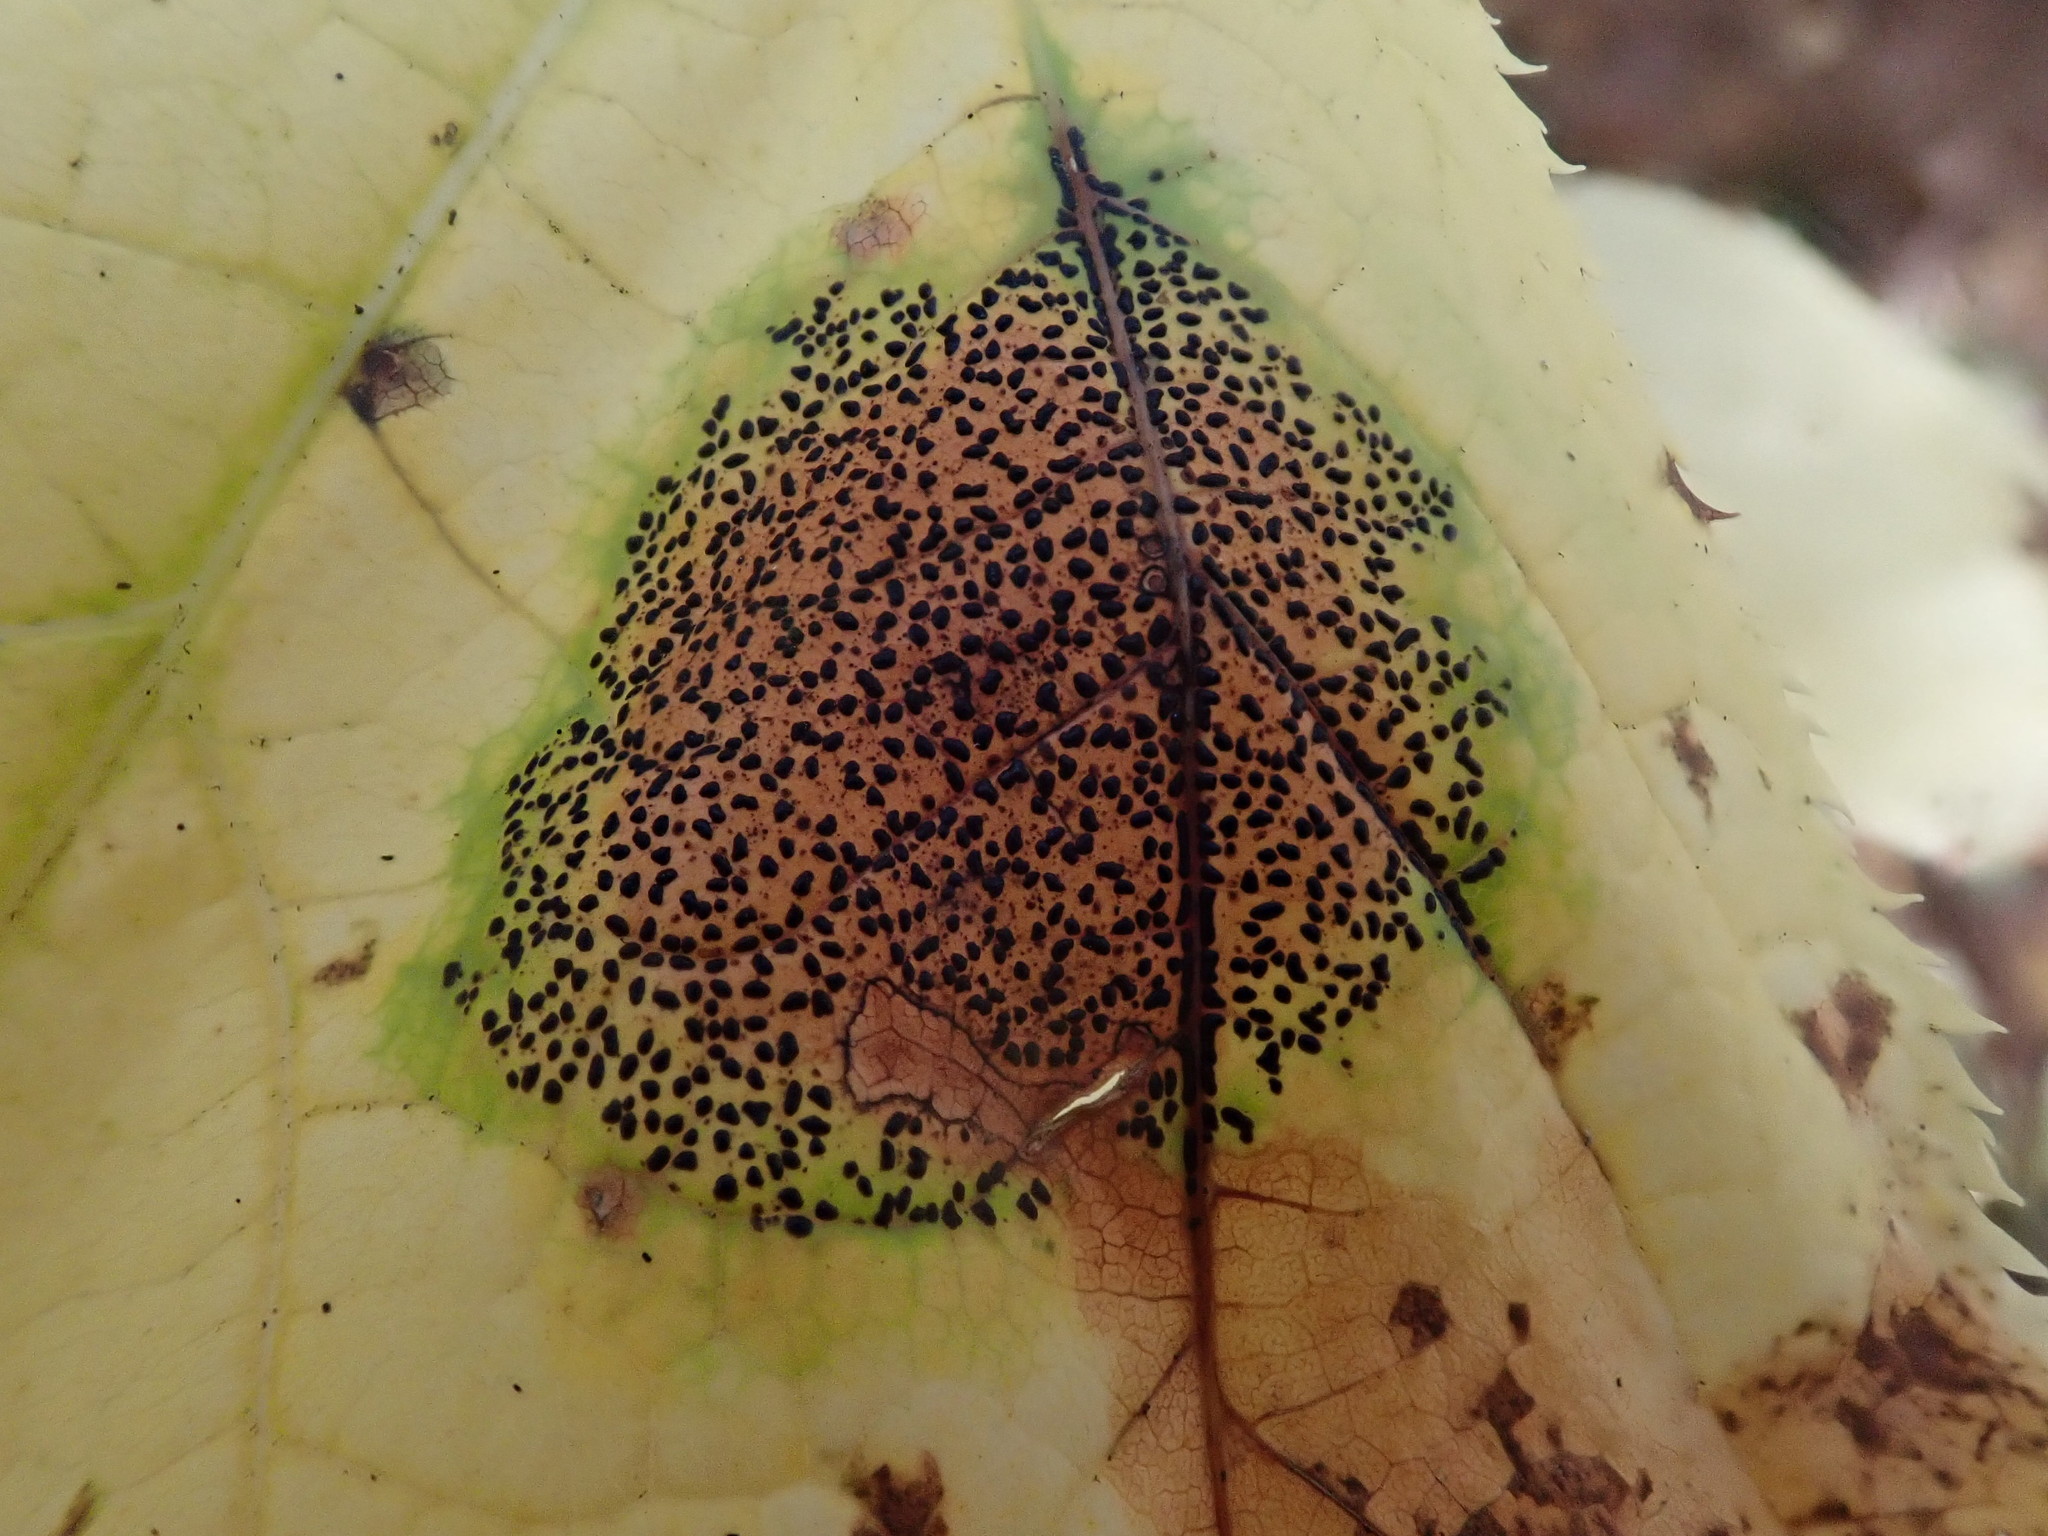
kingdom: Fungi
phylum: Ascomycota
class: Leotiomycetes
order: Rhytismatales
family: Rhytismataceae
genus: Rhytisma
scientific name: Rhytisma punctatum
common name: Speckled tar spot
